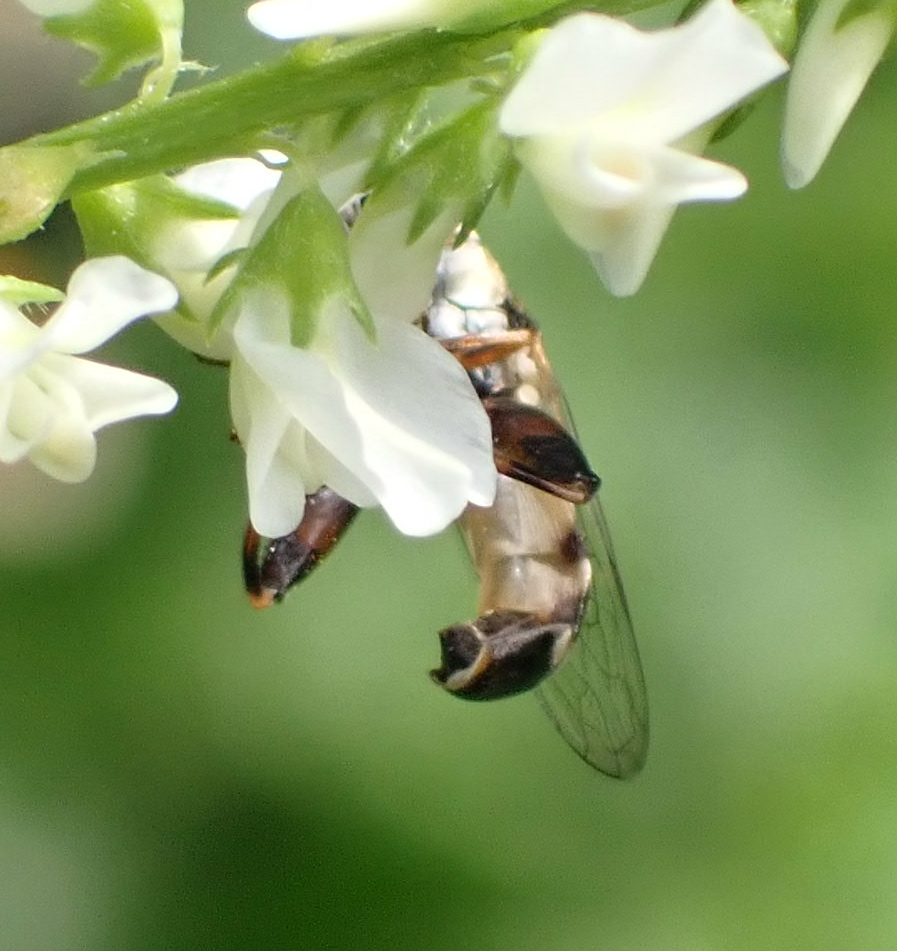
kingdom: Animalia
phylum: Arthropoda
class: Insecta
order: Diptera
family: Syrphidae
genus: Syritta
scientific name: Syritta pipiens
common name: Hover fly
